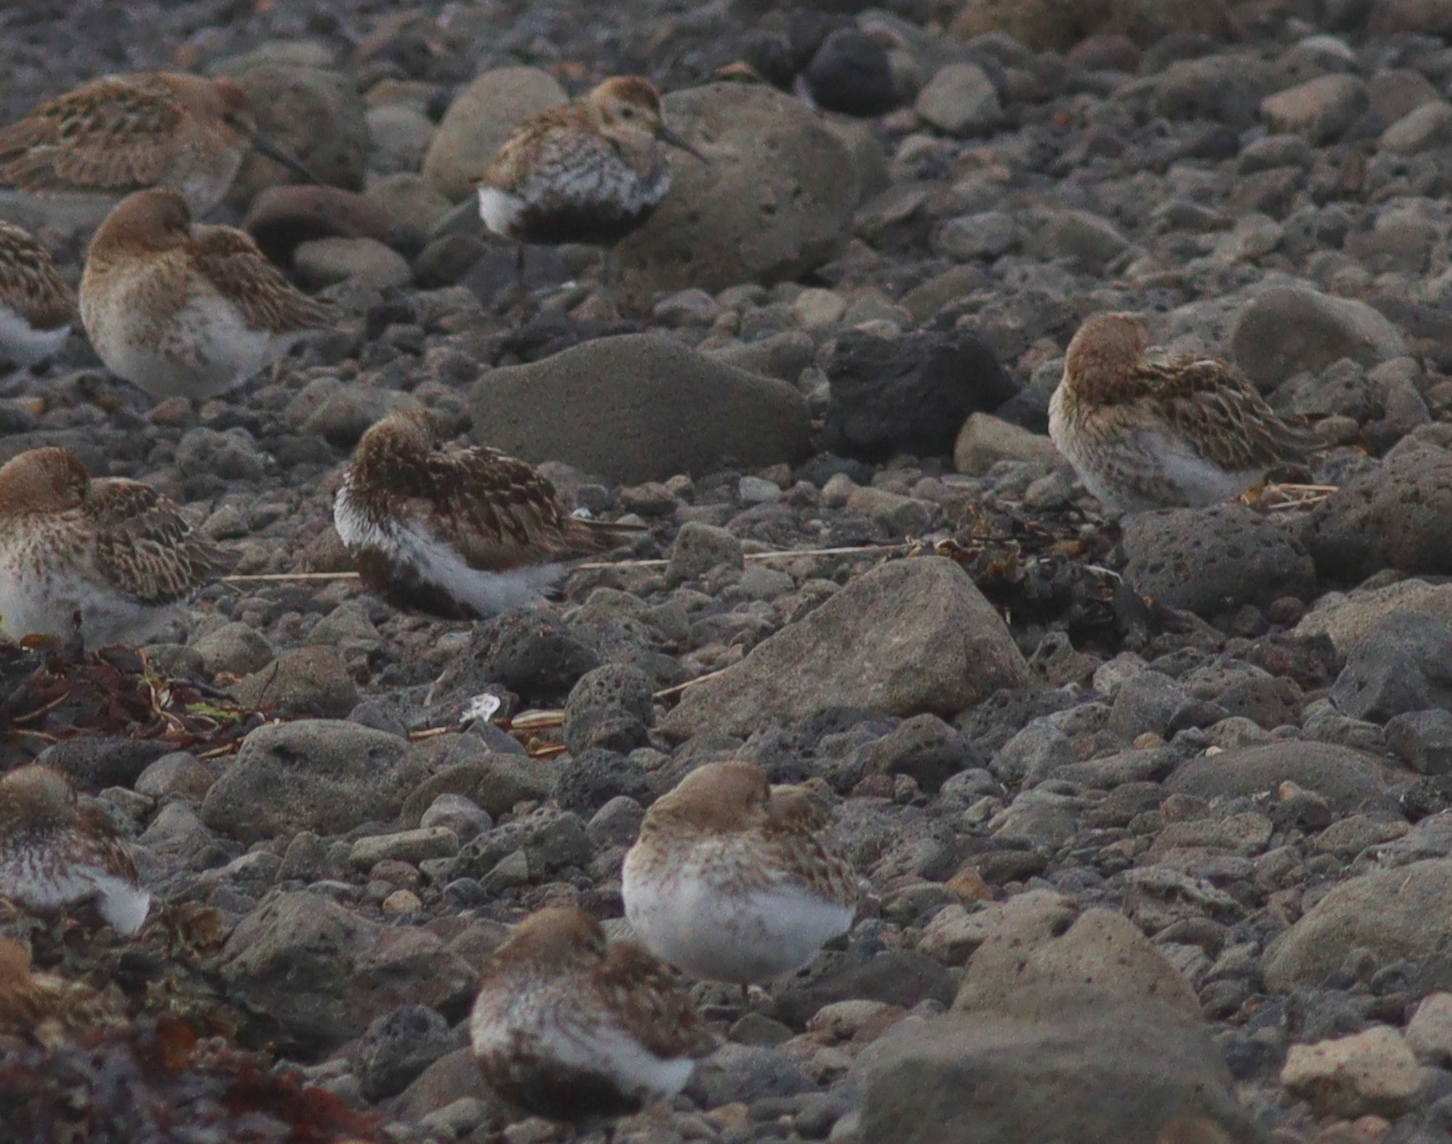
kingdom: Animalia
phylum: Chordata
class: Aves
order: Charadriiformes
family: Scolopacidae
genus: Calidris
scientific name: Calidris alpina
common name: Dunlin
